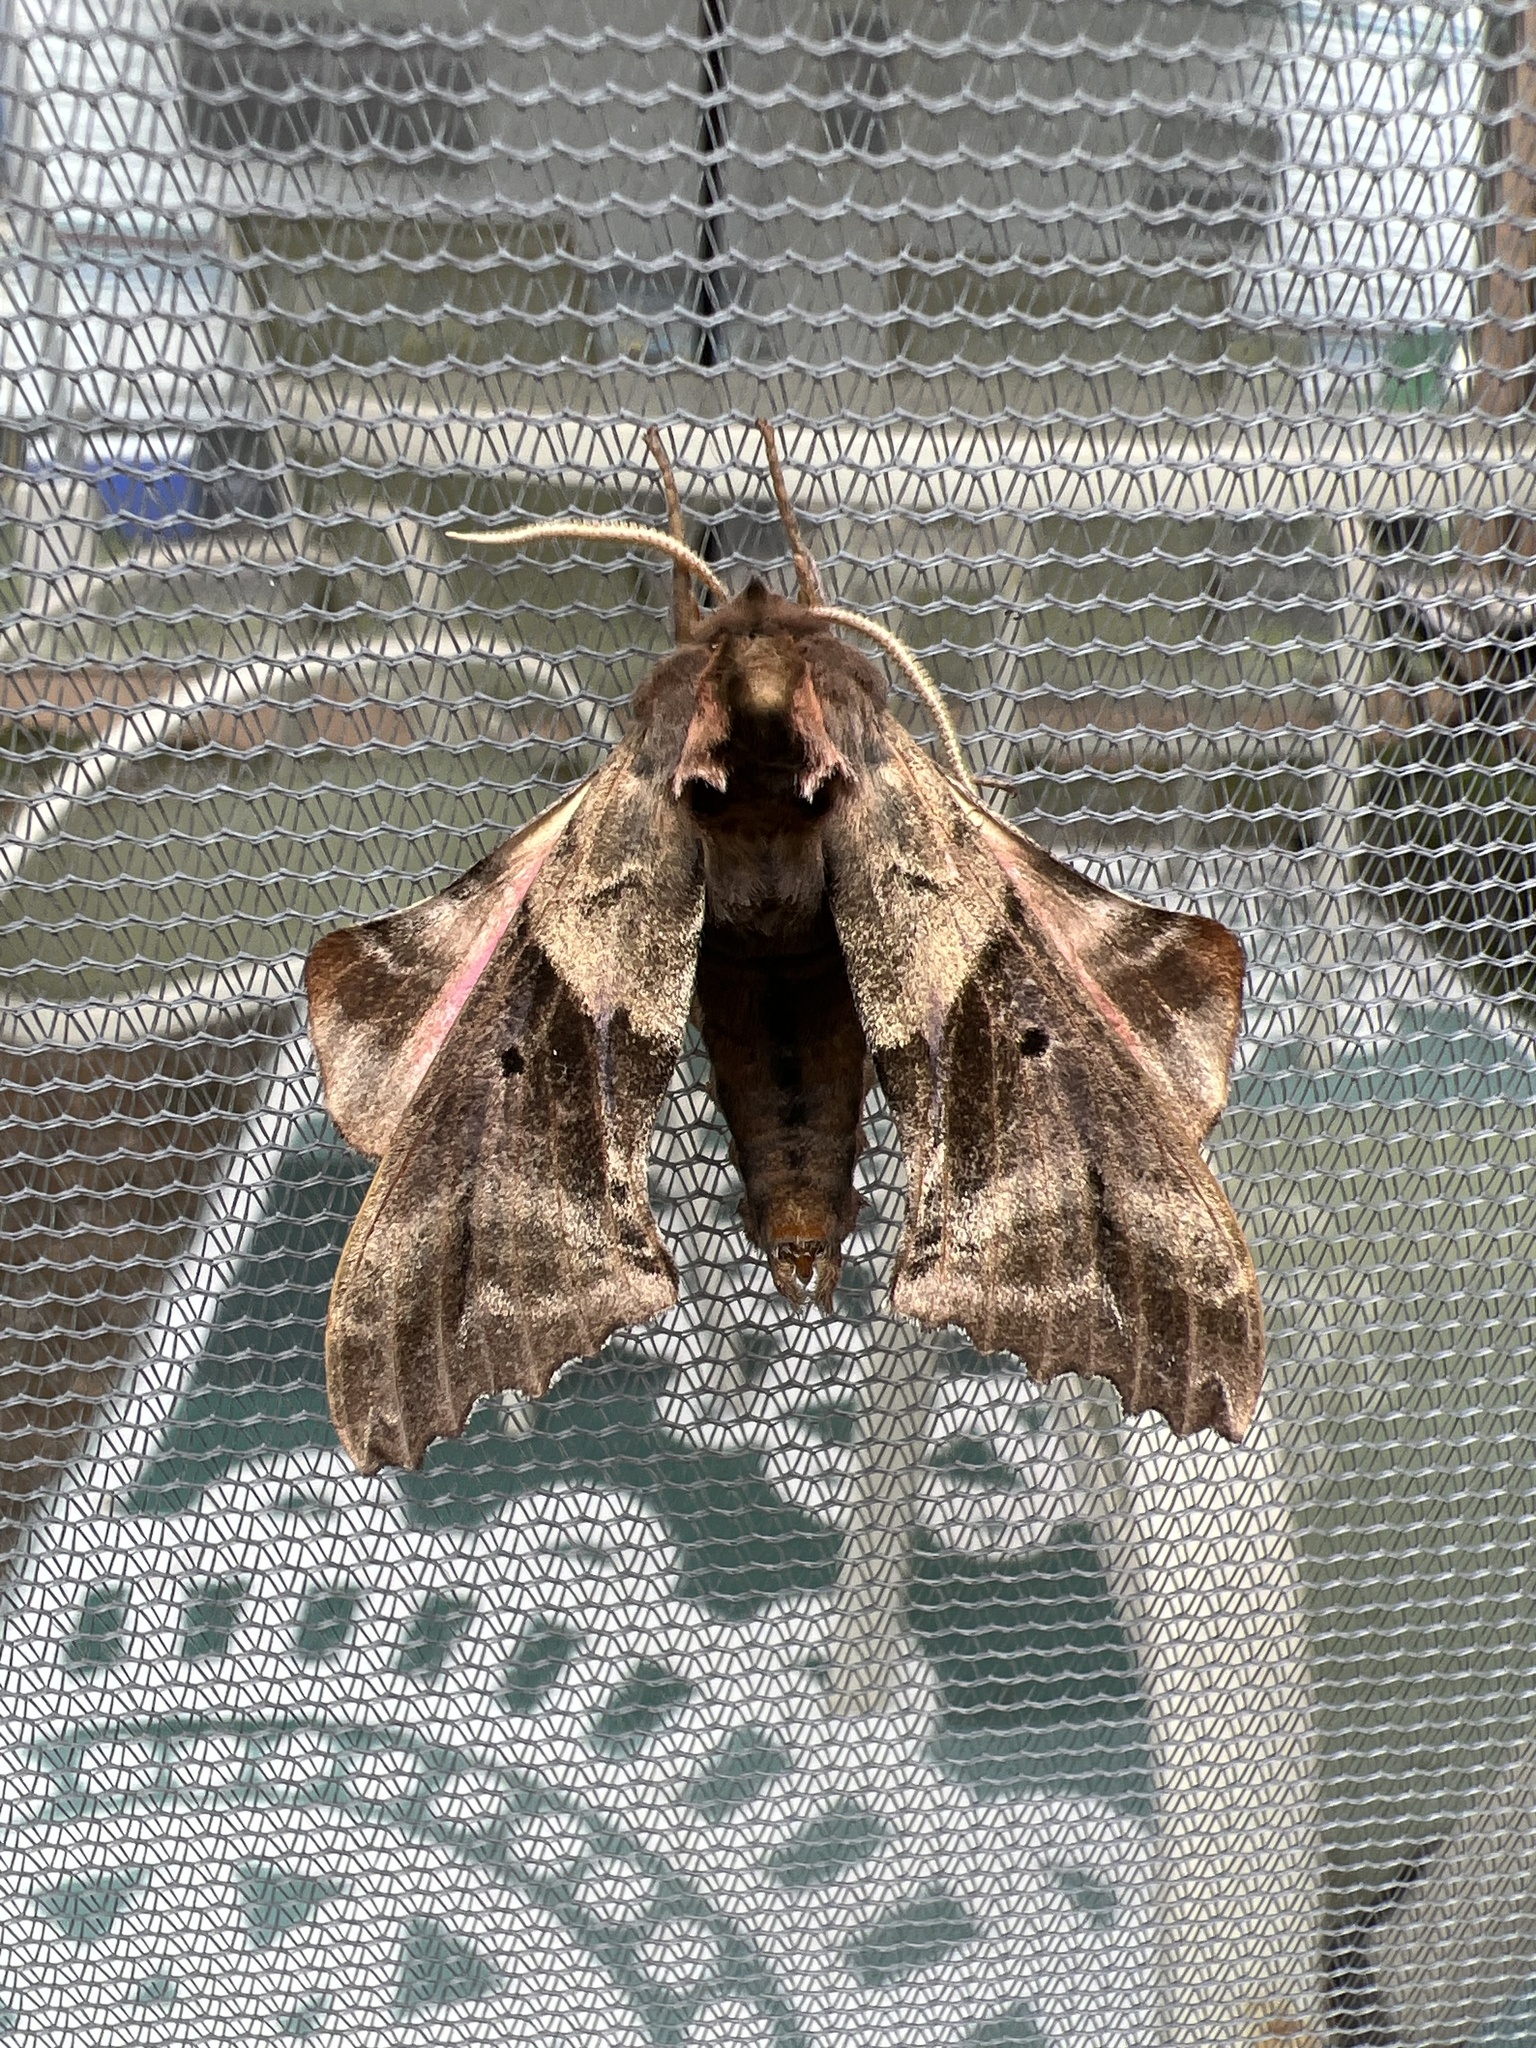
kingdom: Animalia
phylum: Arthropoda
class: Insecta
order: Lepidoptera
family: Sphingidae
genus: Paonias
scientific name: Paonias excaecata
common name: Blind-eyed sphinx
